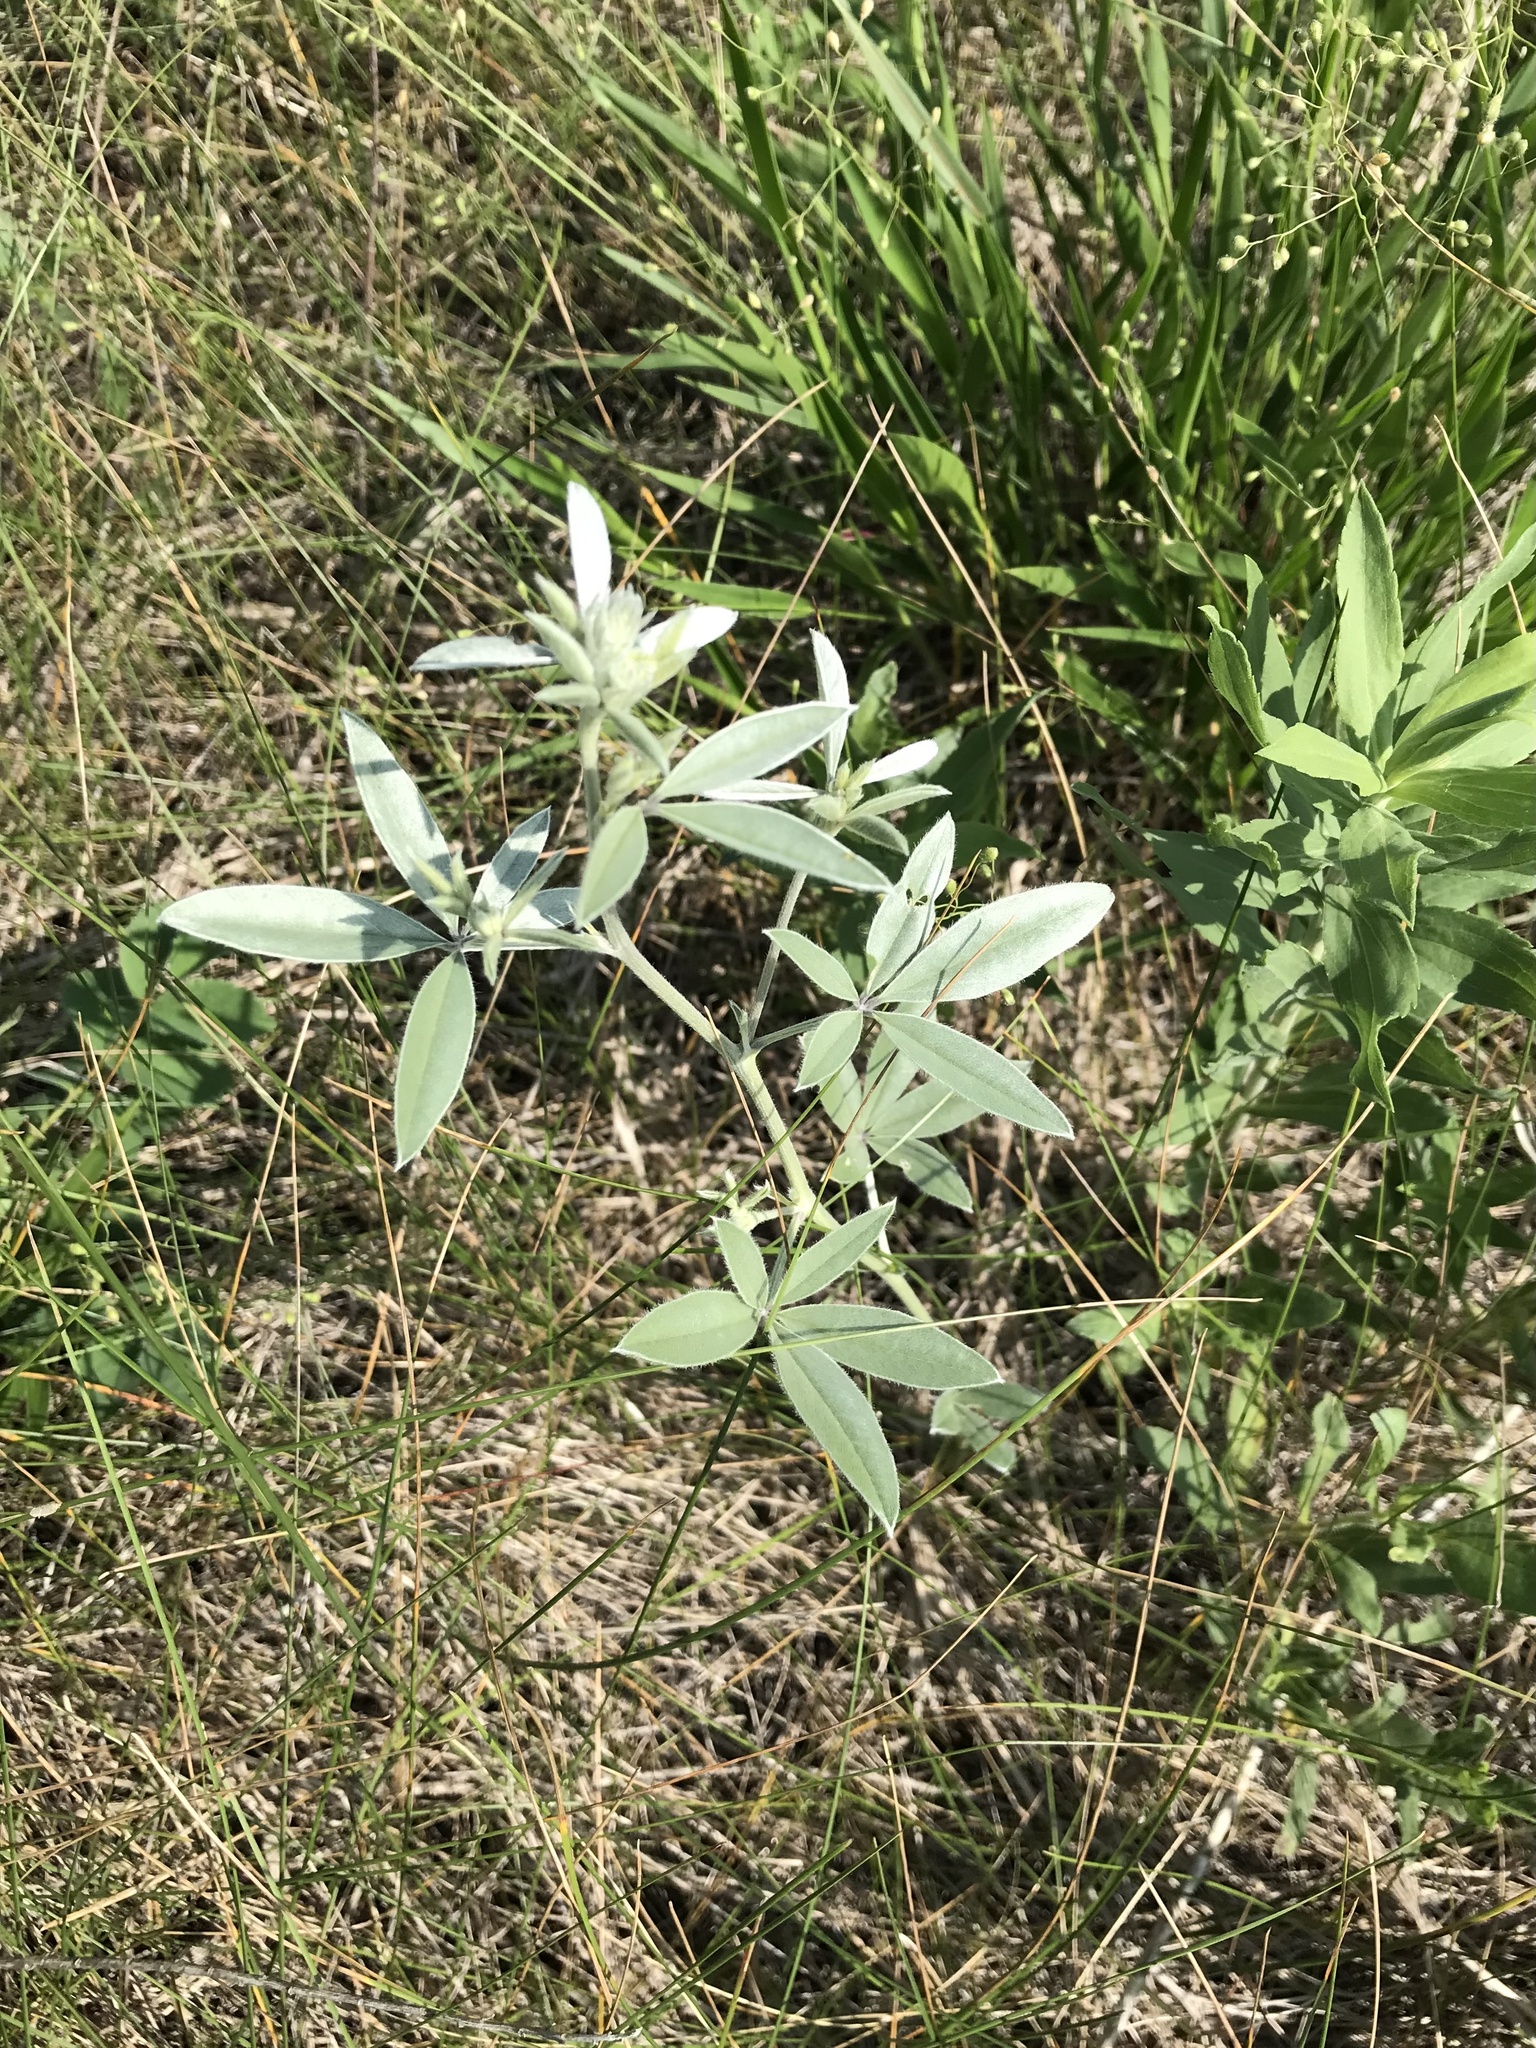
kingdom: Plantae
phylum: Tracheophyta
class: Magnoliopsida
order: Fabales
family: Fabaceae
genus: Pediomelum
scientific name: Pediomelum argophyllum
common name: Silver-leaved indian breadroot
